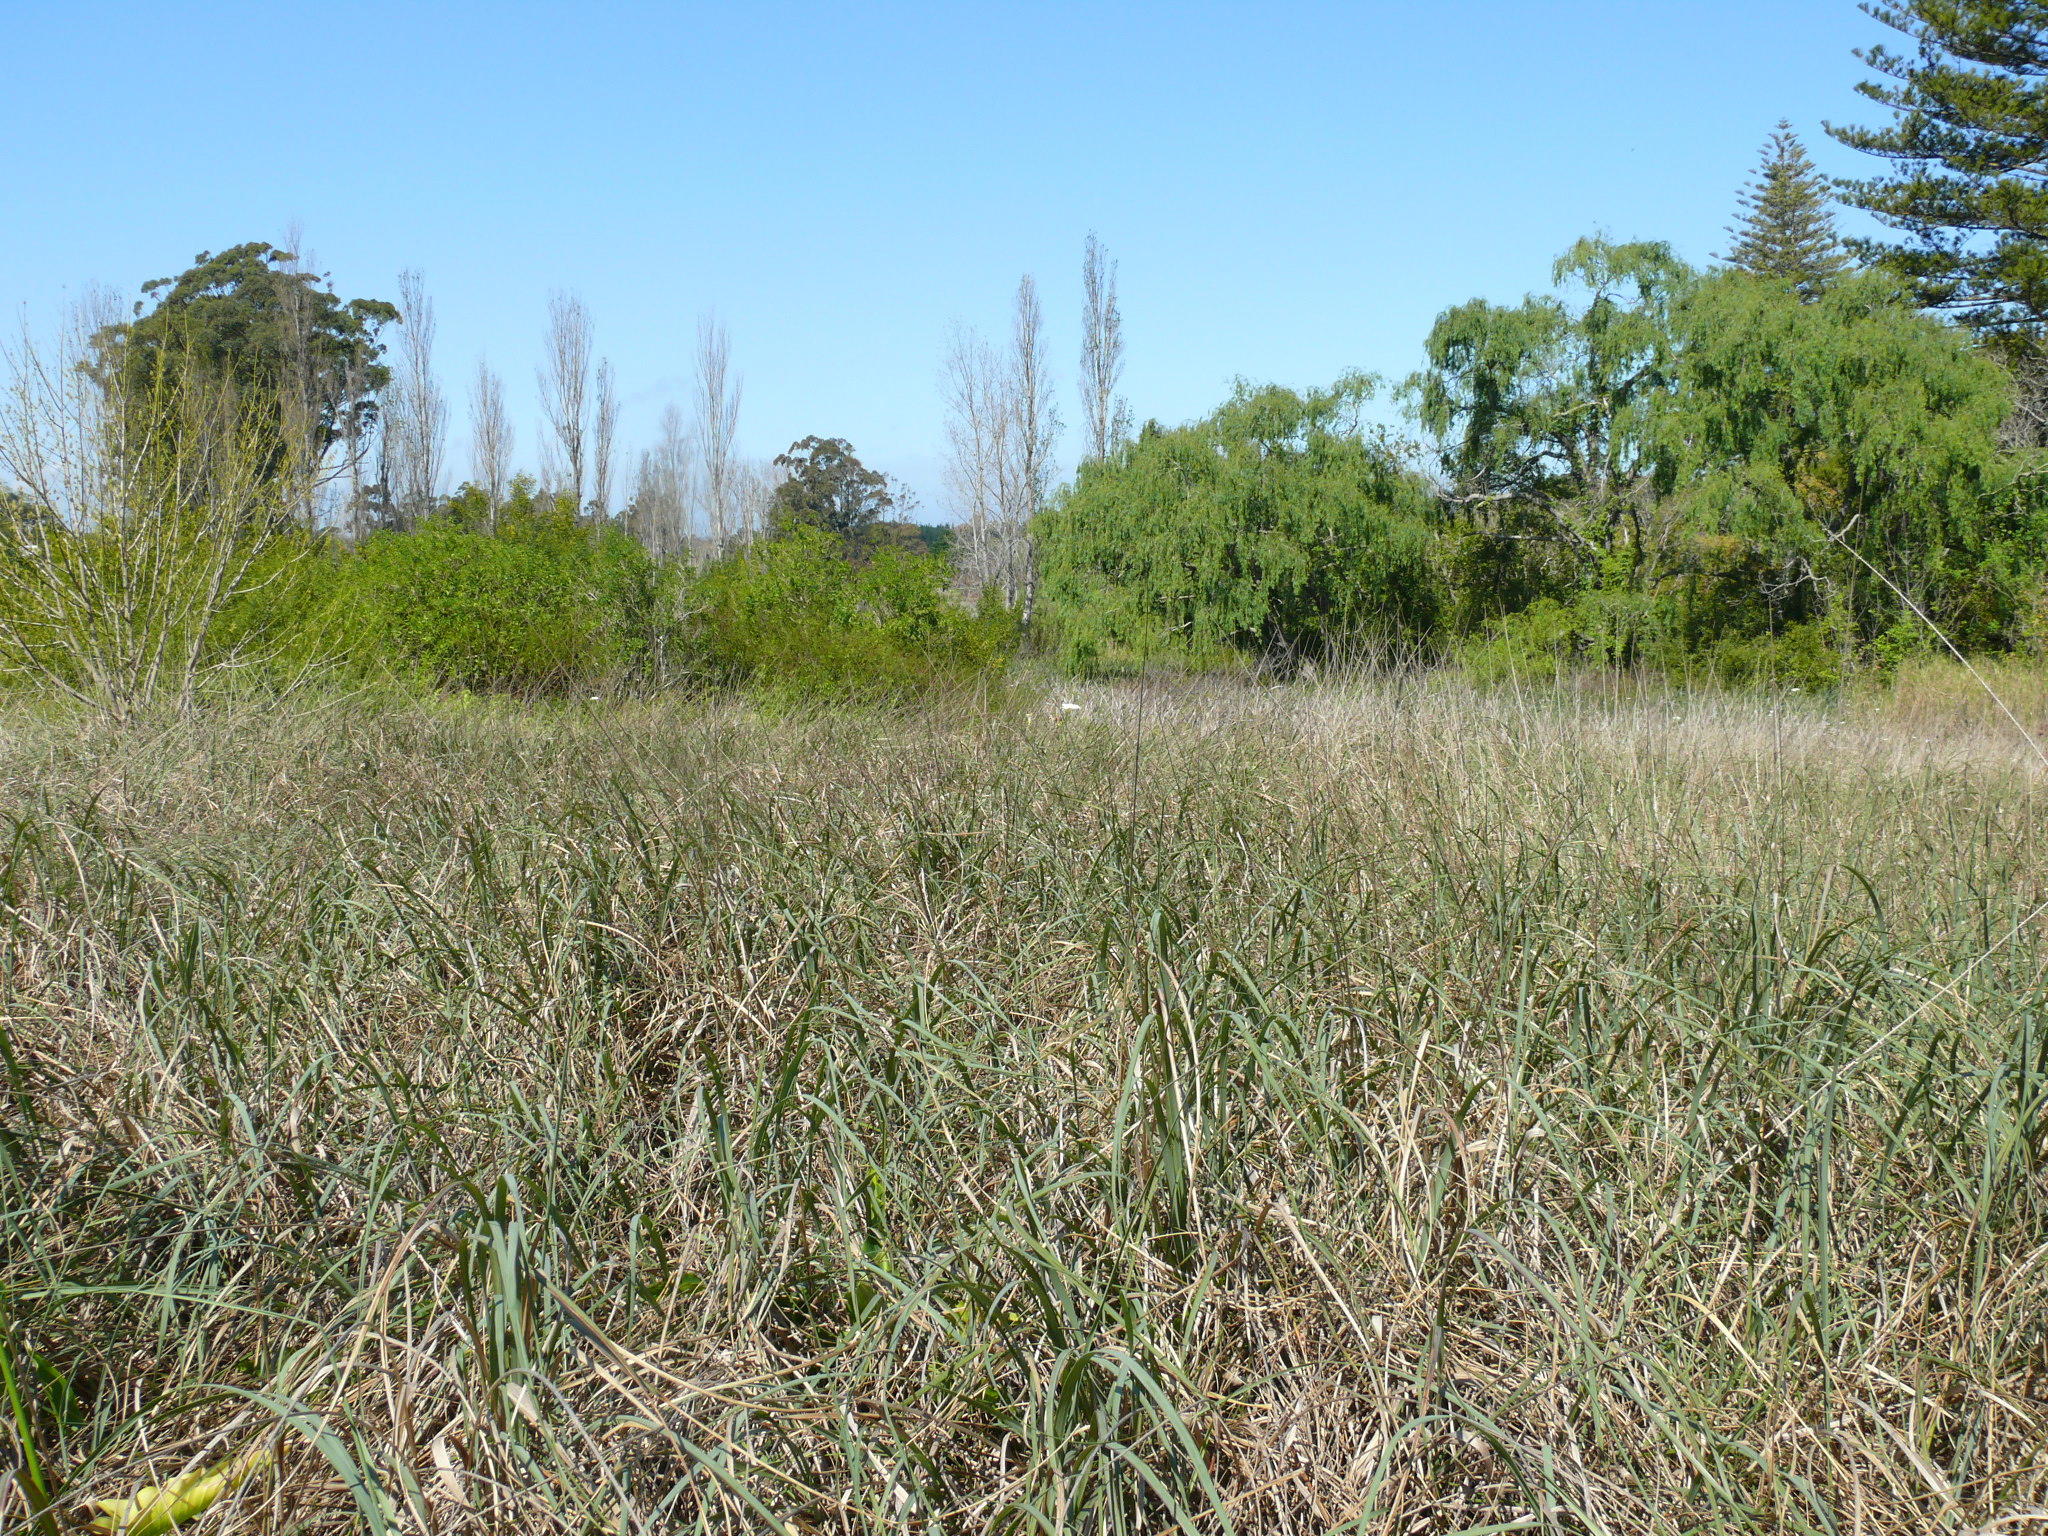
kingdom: Plantae
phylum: Tracheophyta
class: Liliopsida
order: Poales
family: Poaceae
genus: Cenchrus
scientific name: Cenchrus caudatus
